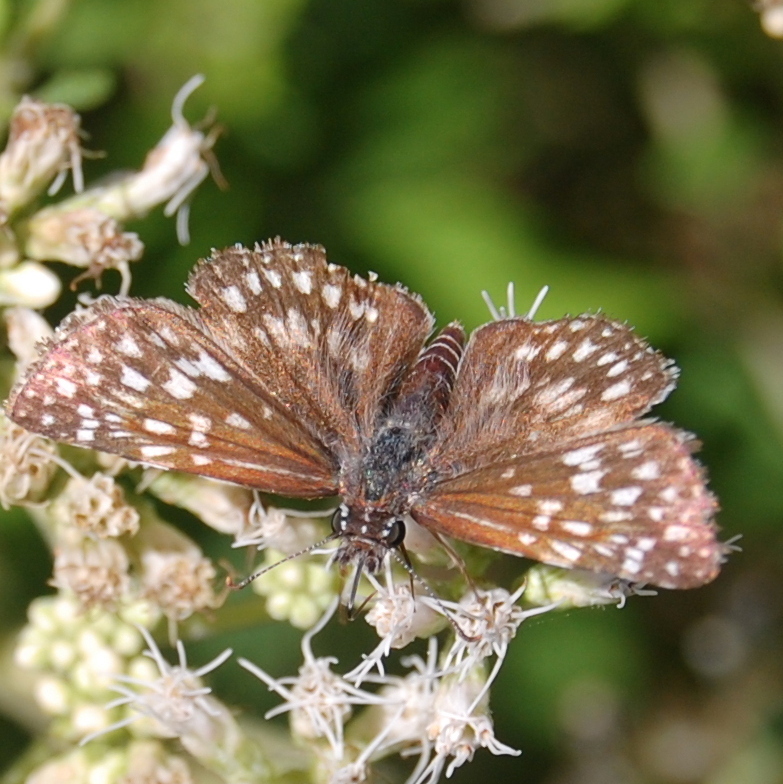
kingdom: Animalia
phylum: Arthropoda
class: Insecta
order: Lepidoptera
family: Hesperiidae
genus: Pyrgus
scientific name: Pyrgus oileus
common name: Tropical checkered-skipper
